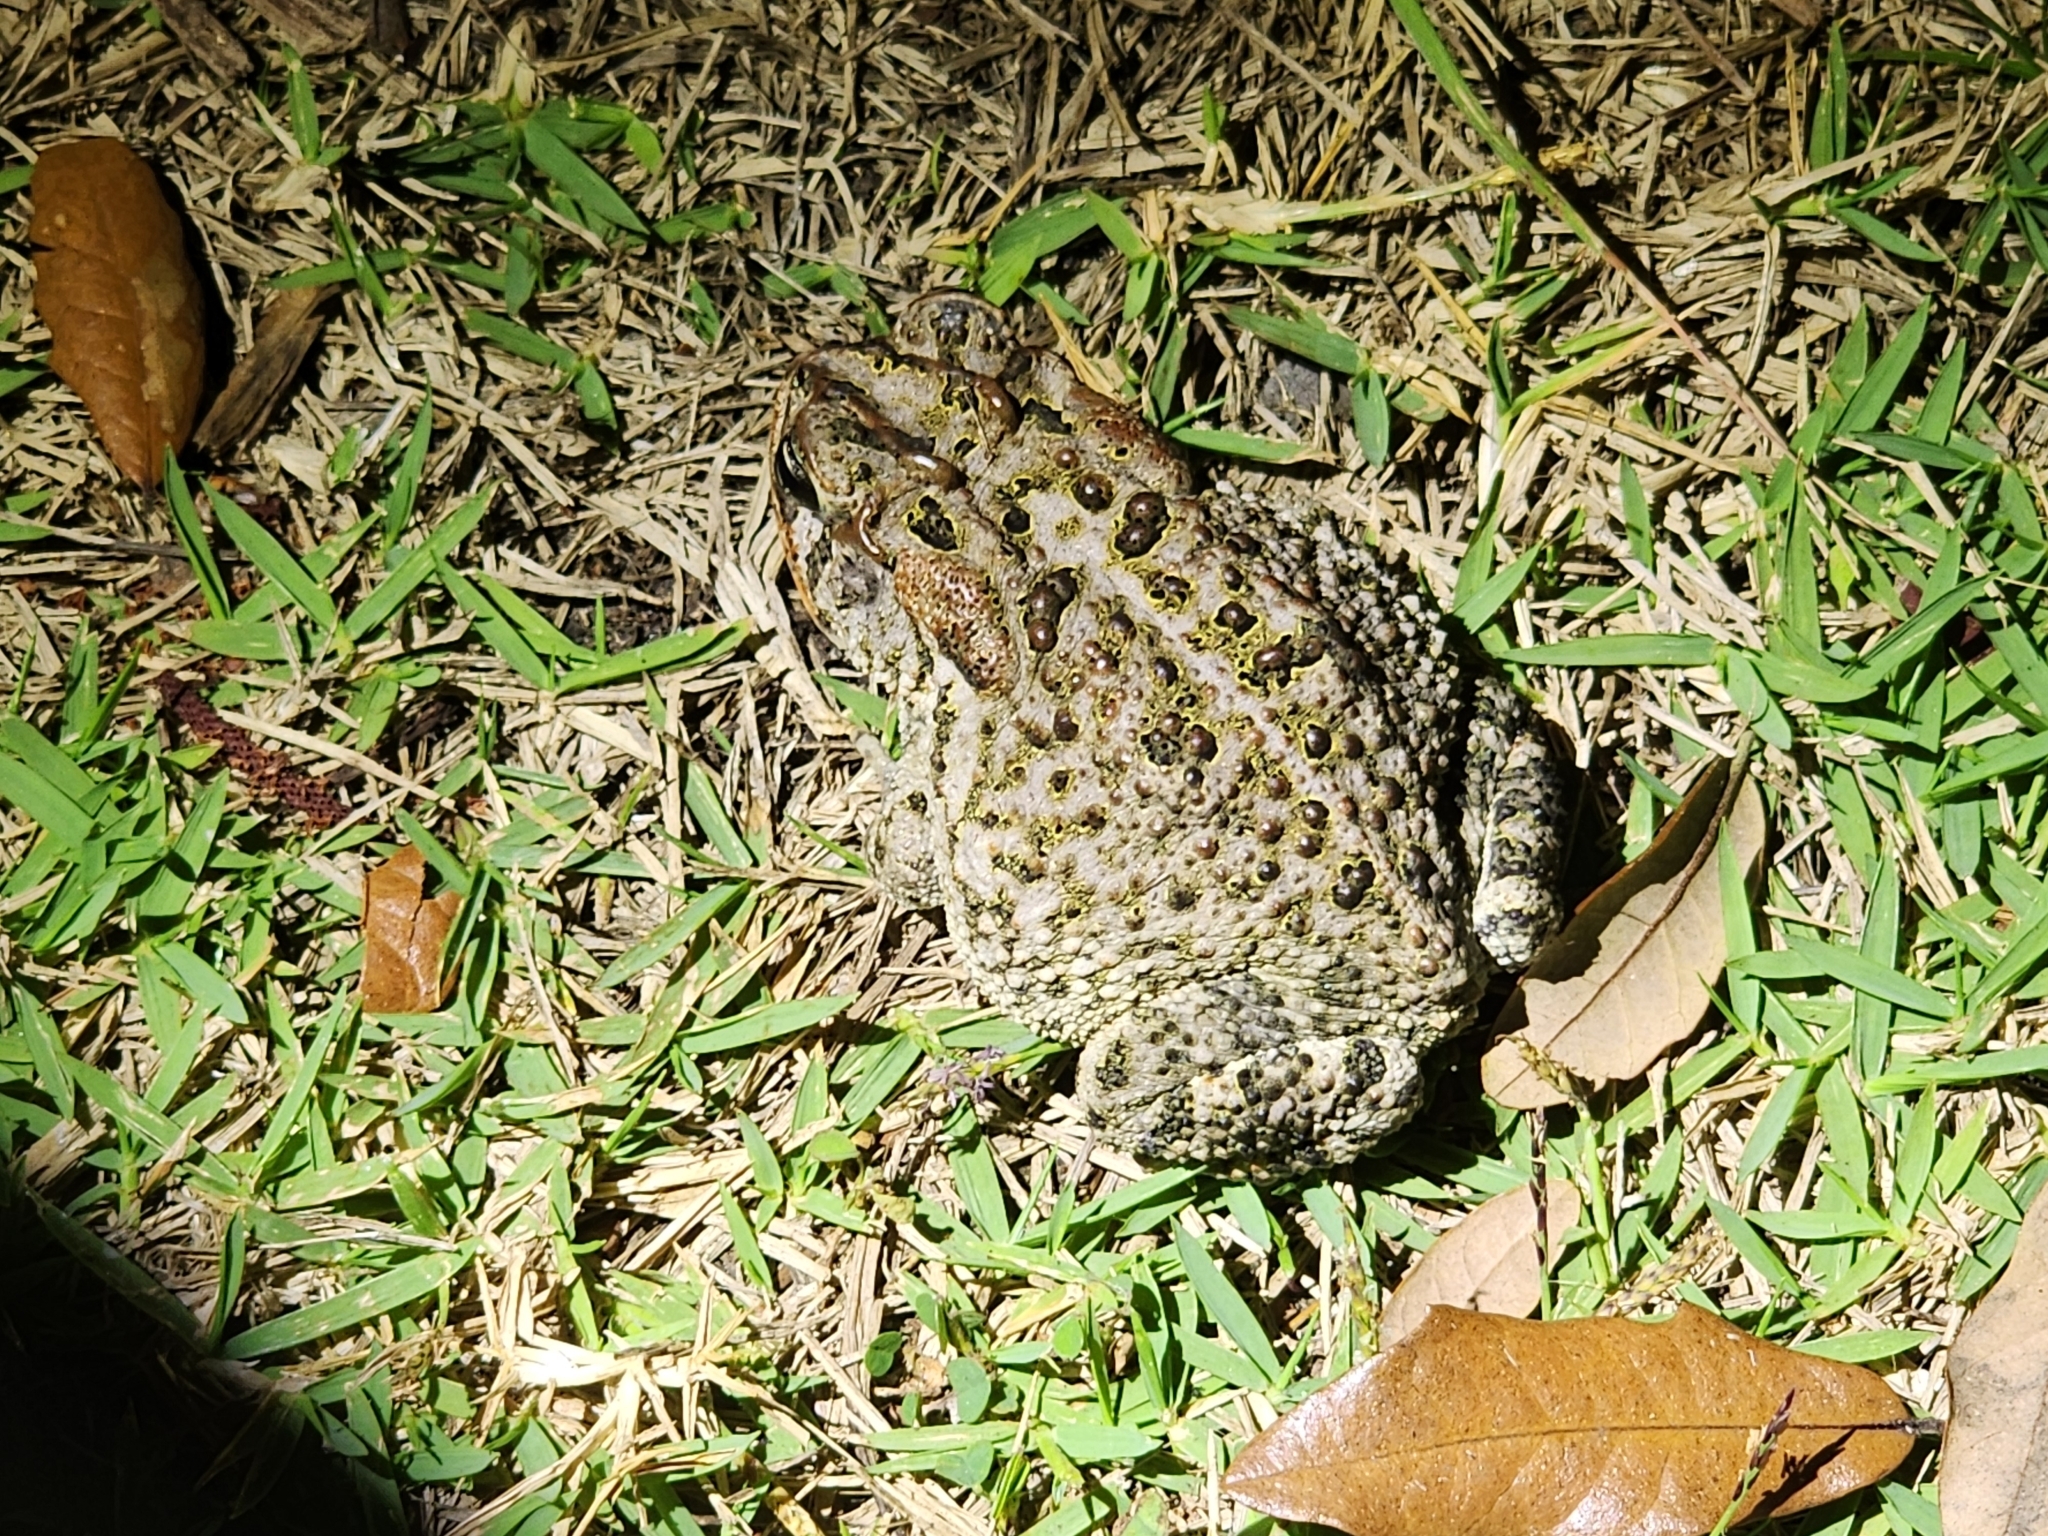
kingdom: Animalia
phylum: Chordata
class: Amphibia
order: Anura
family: Bufonidae
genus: Anaxyrus
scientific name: Anaxyrus terrestris
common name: Southern toad
